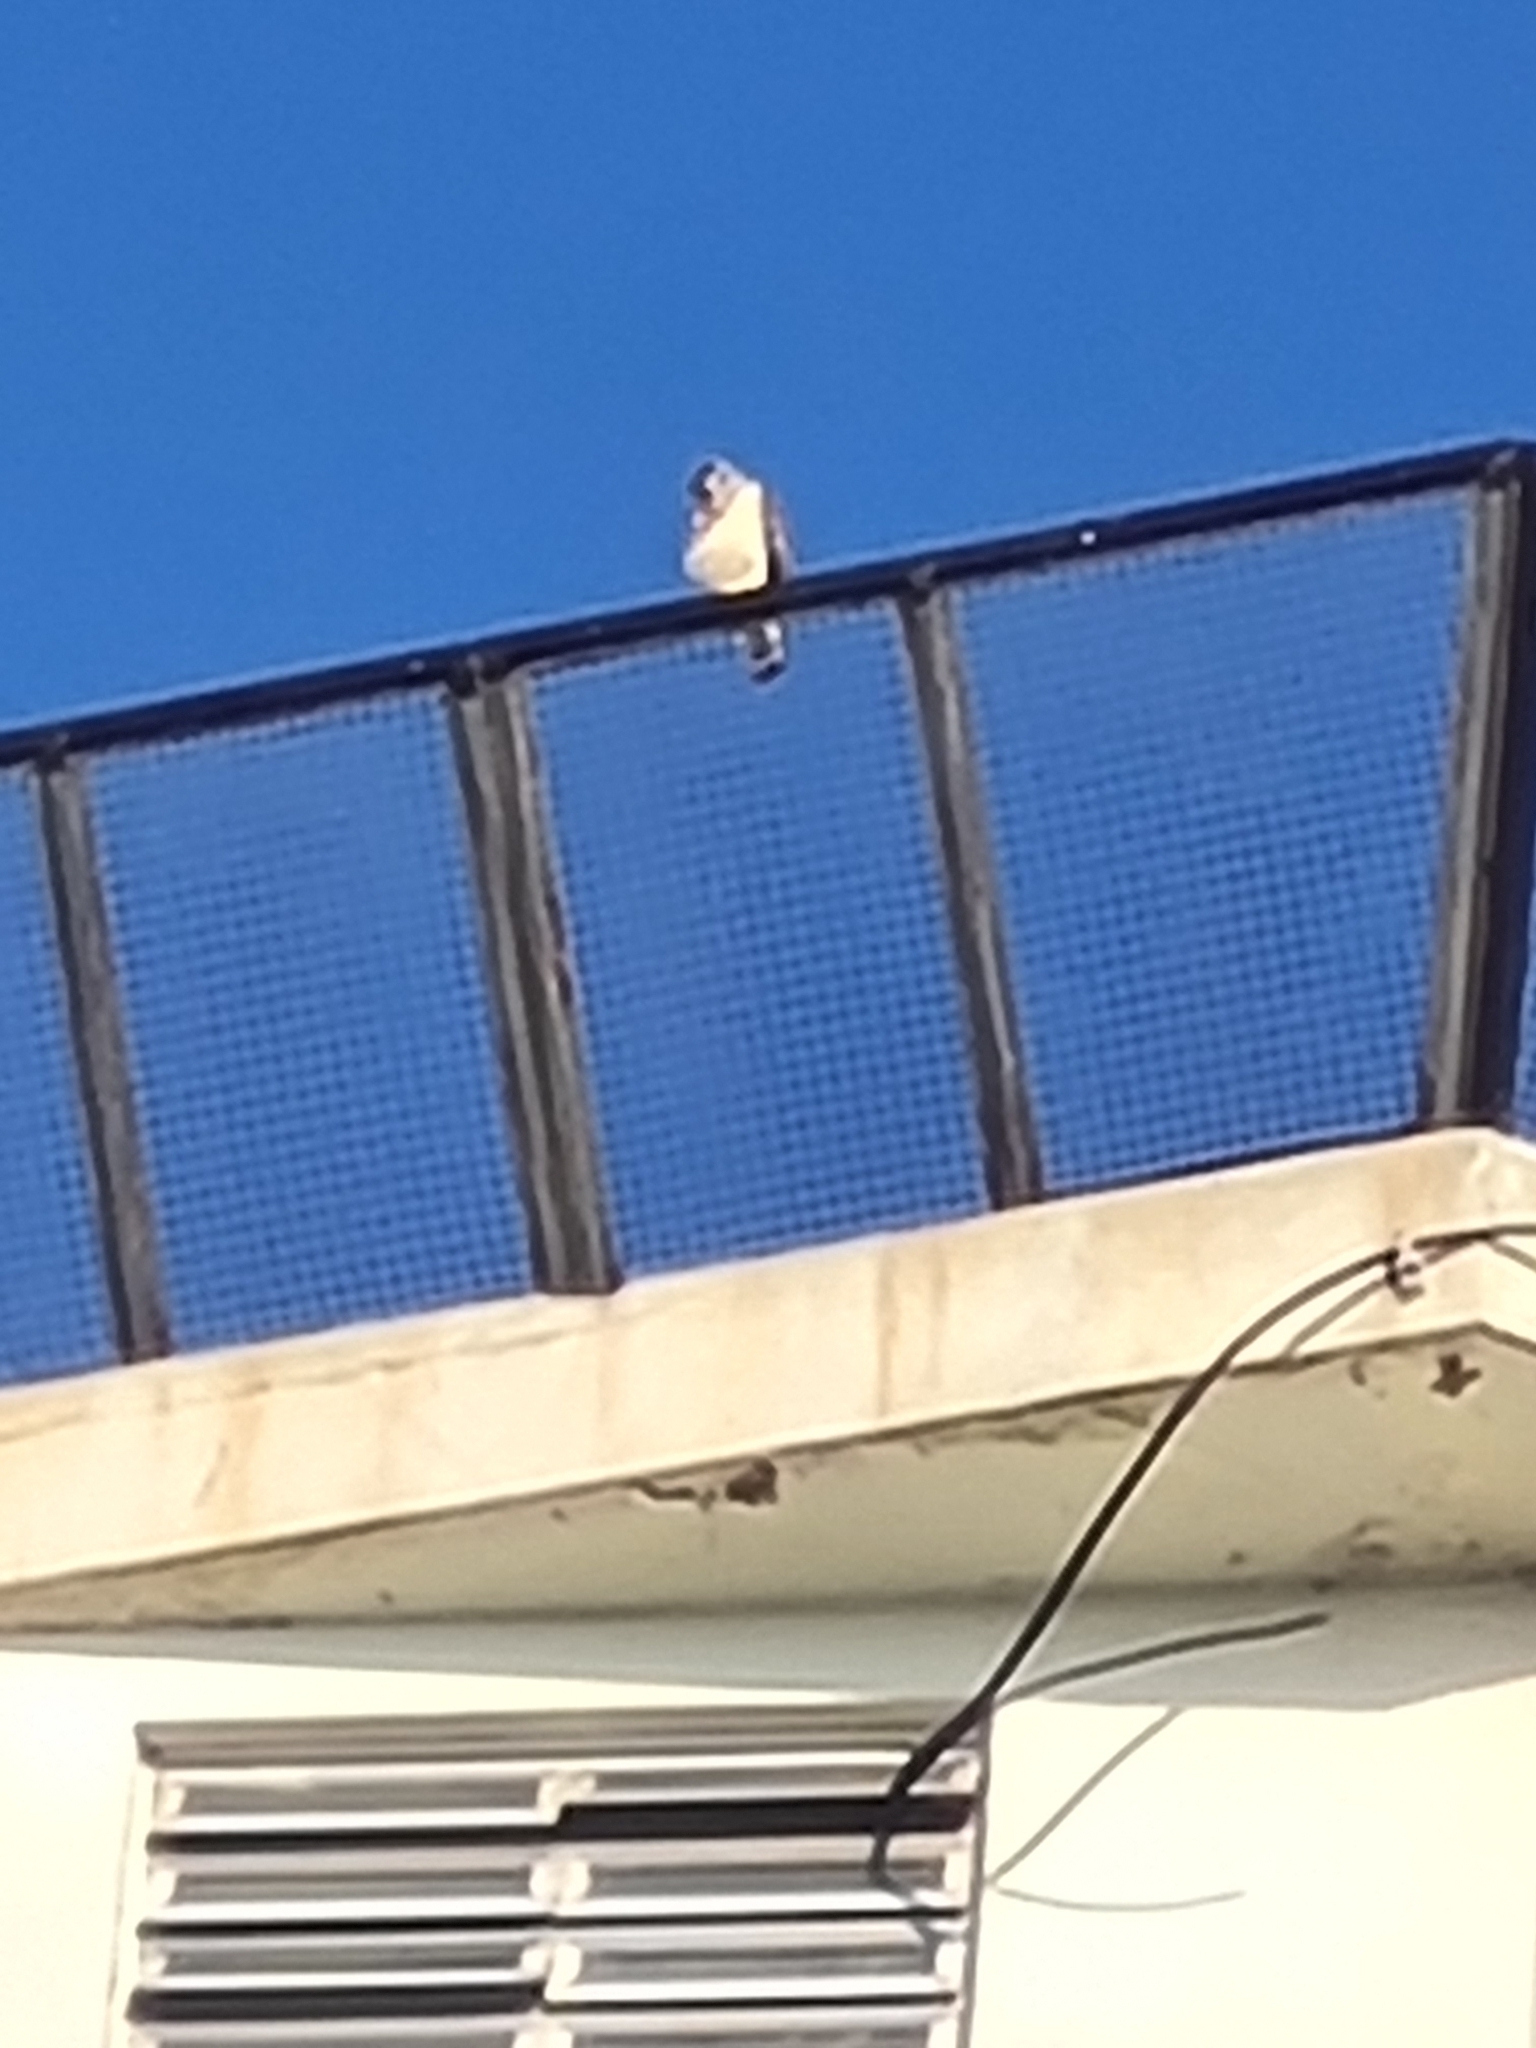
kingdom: Animalia
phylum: Chordata
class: Aves
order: Accipitriformes
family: Accipitridae
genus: Buteo
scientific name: Buteo brachyurus
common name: Short-tailed hawk
